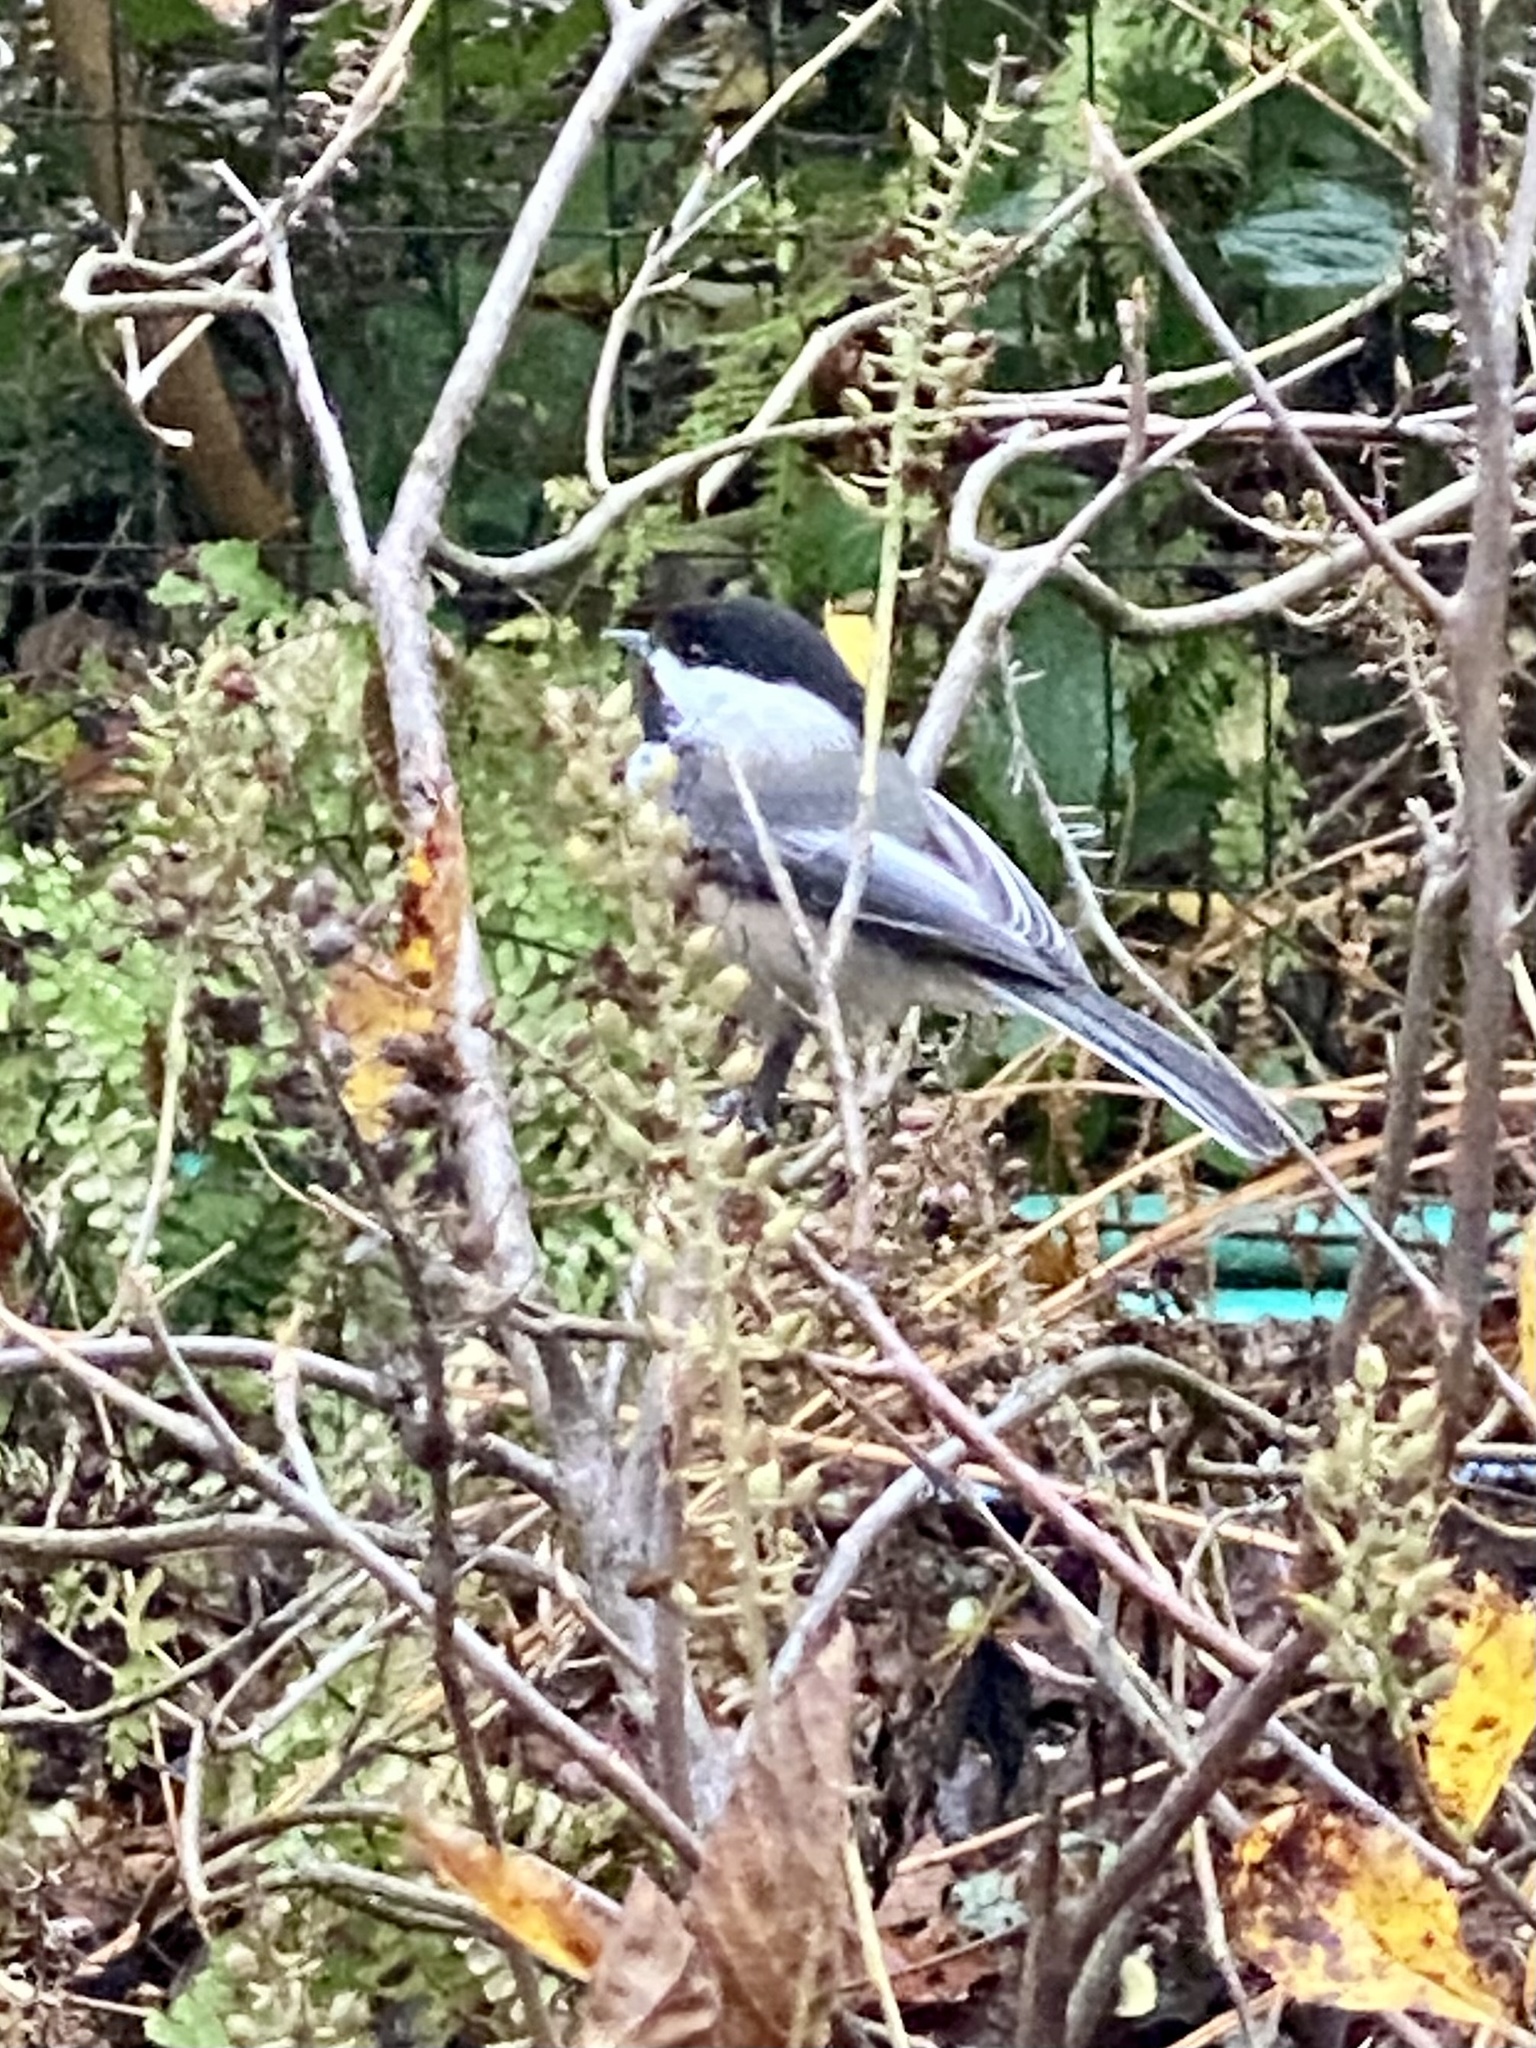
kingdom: Animalia
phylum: Chordata
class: Aves
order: Passeriformes
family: Paridae
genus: Poecile
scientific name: Poecile atricapillus
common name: Black-capped chickadee
